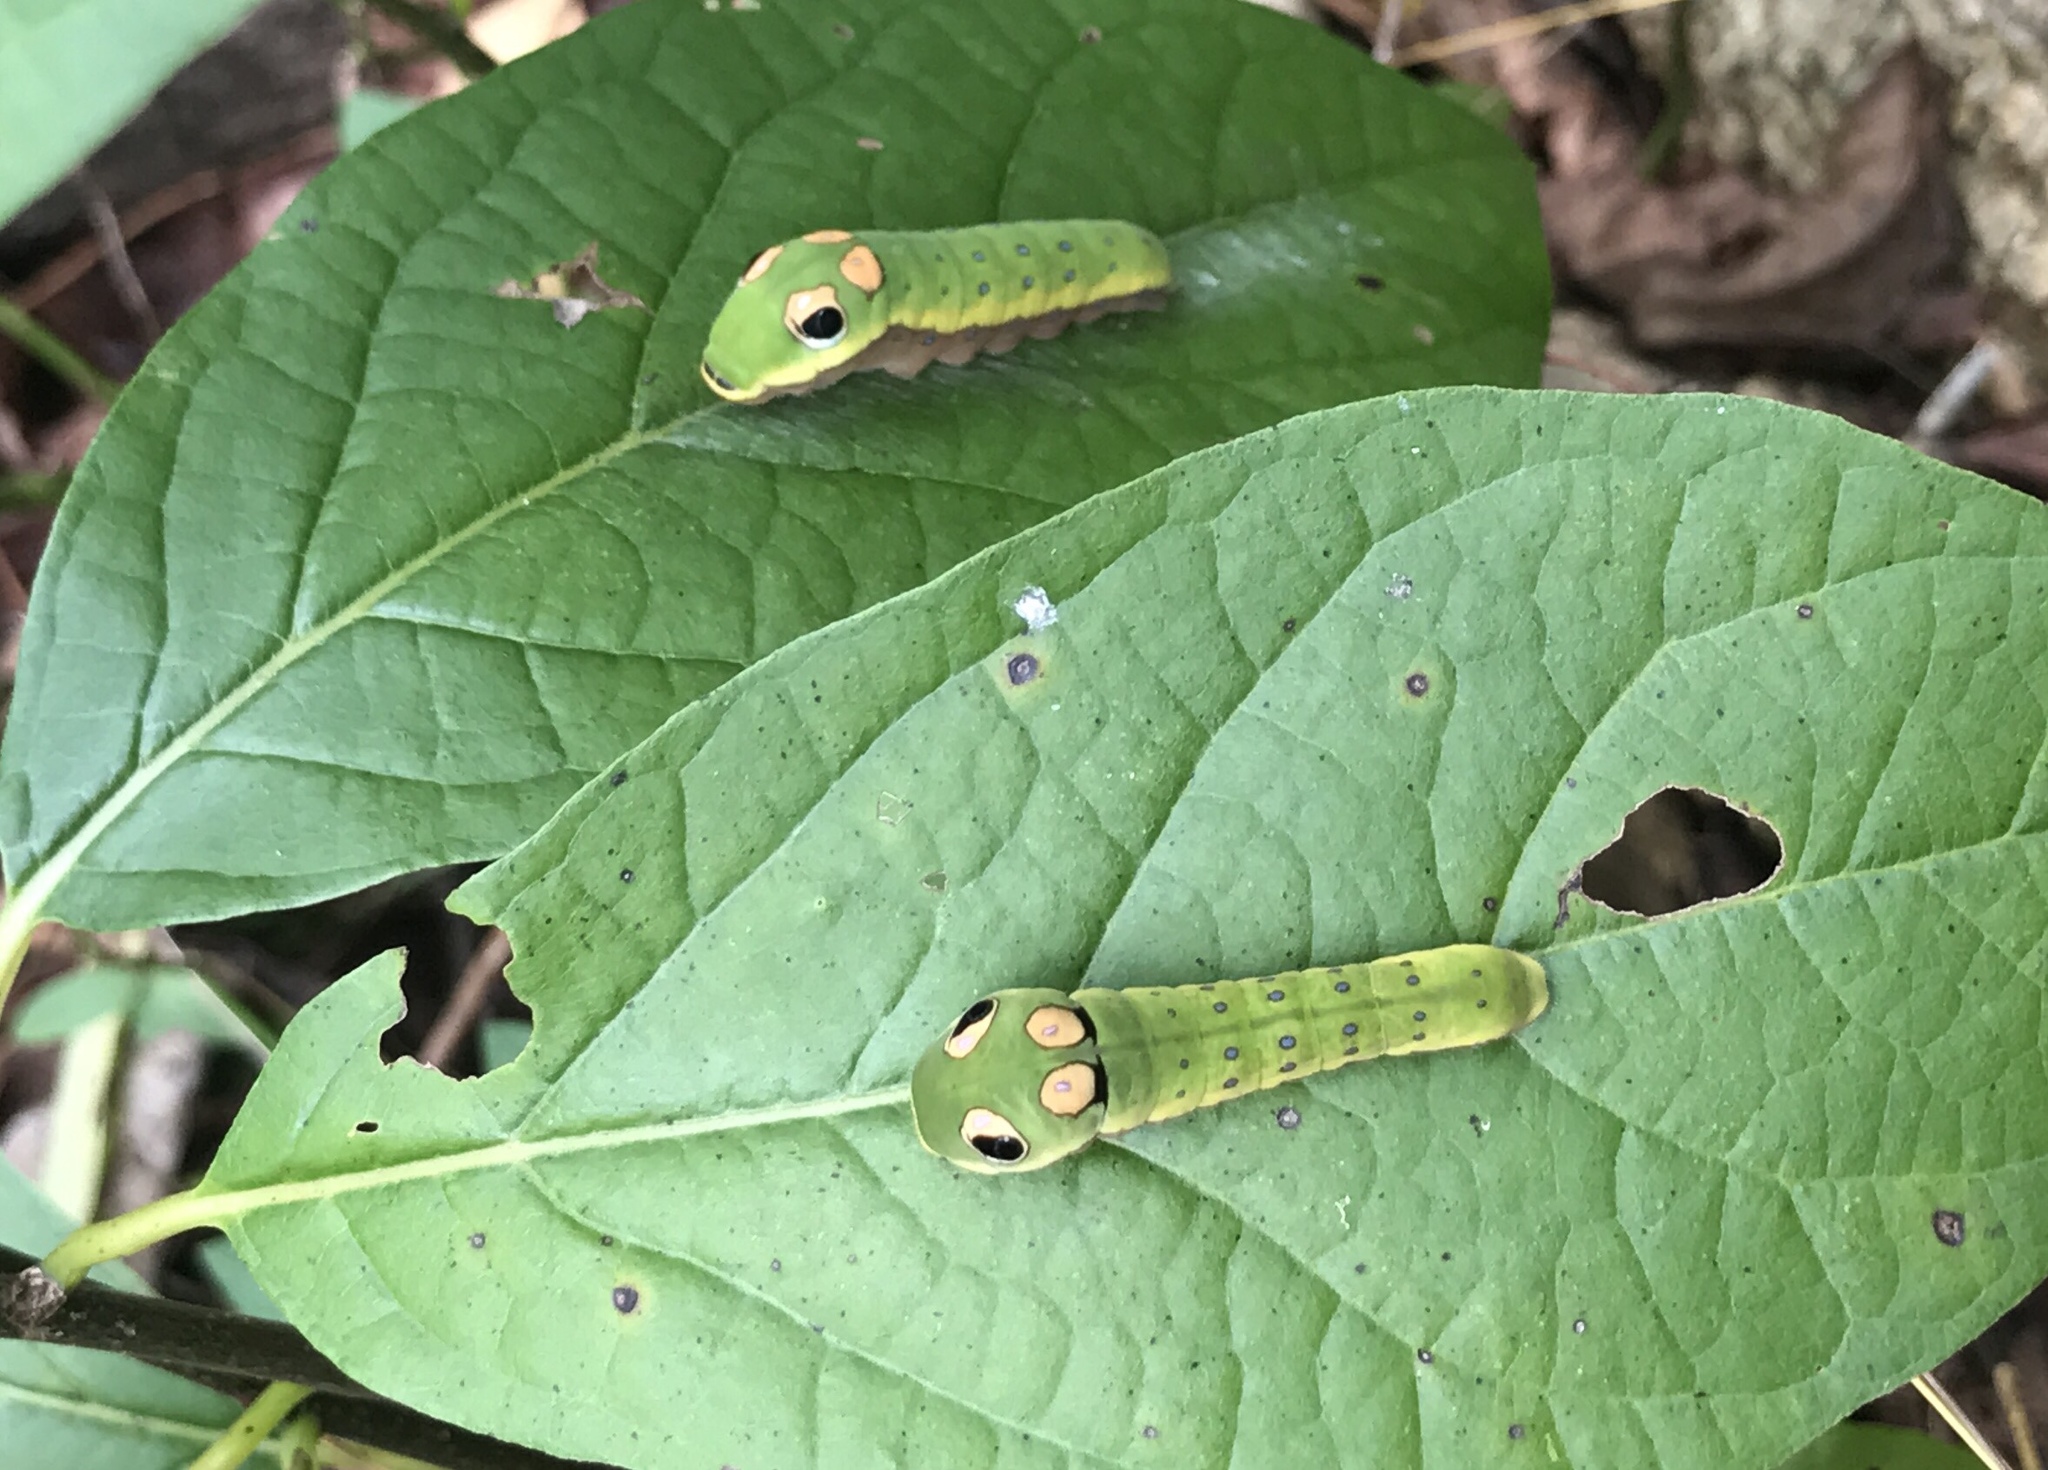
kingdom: Animalia
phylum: Arthropoda
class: Insecta
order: Lepidoptera
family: Papilionidae
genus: Papilio
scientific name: Papilio troilus
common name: Spicebush swallowtail
